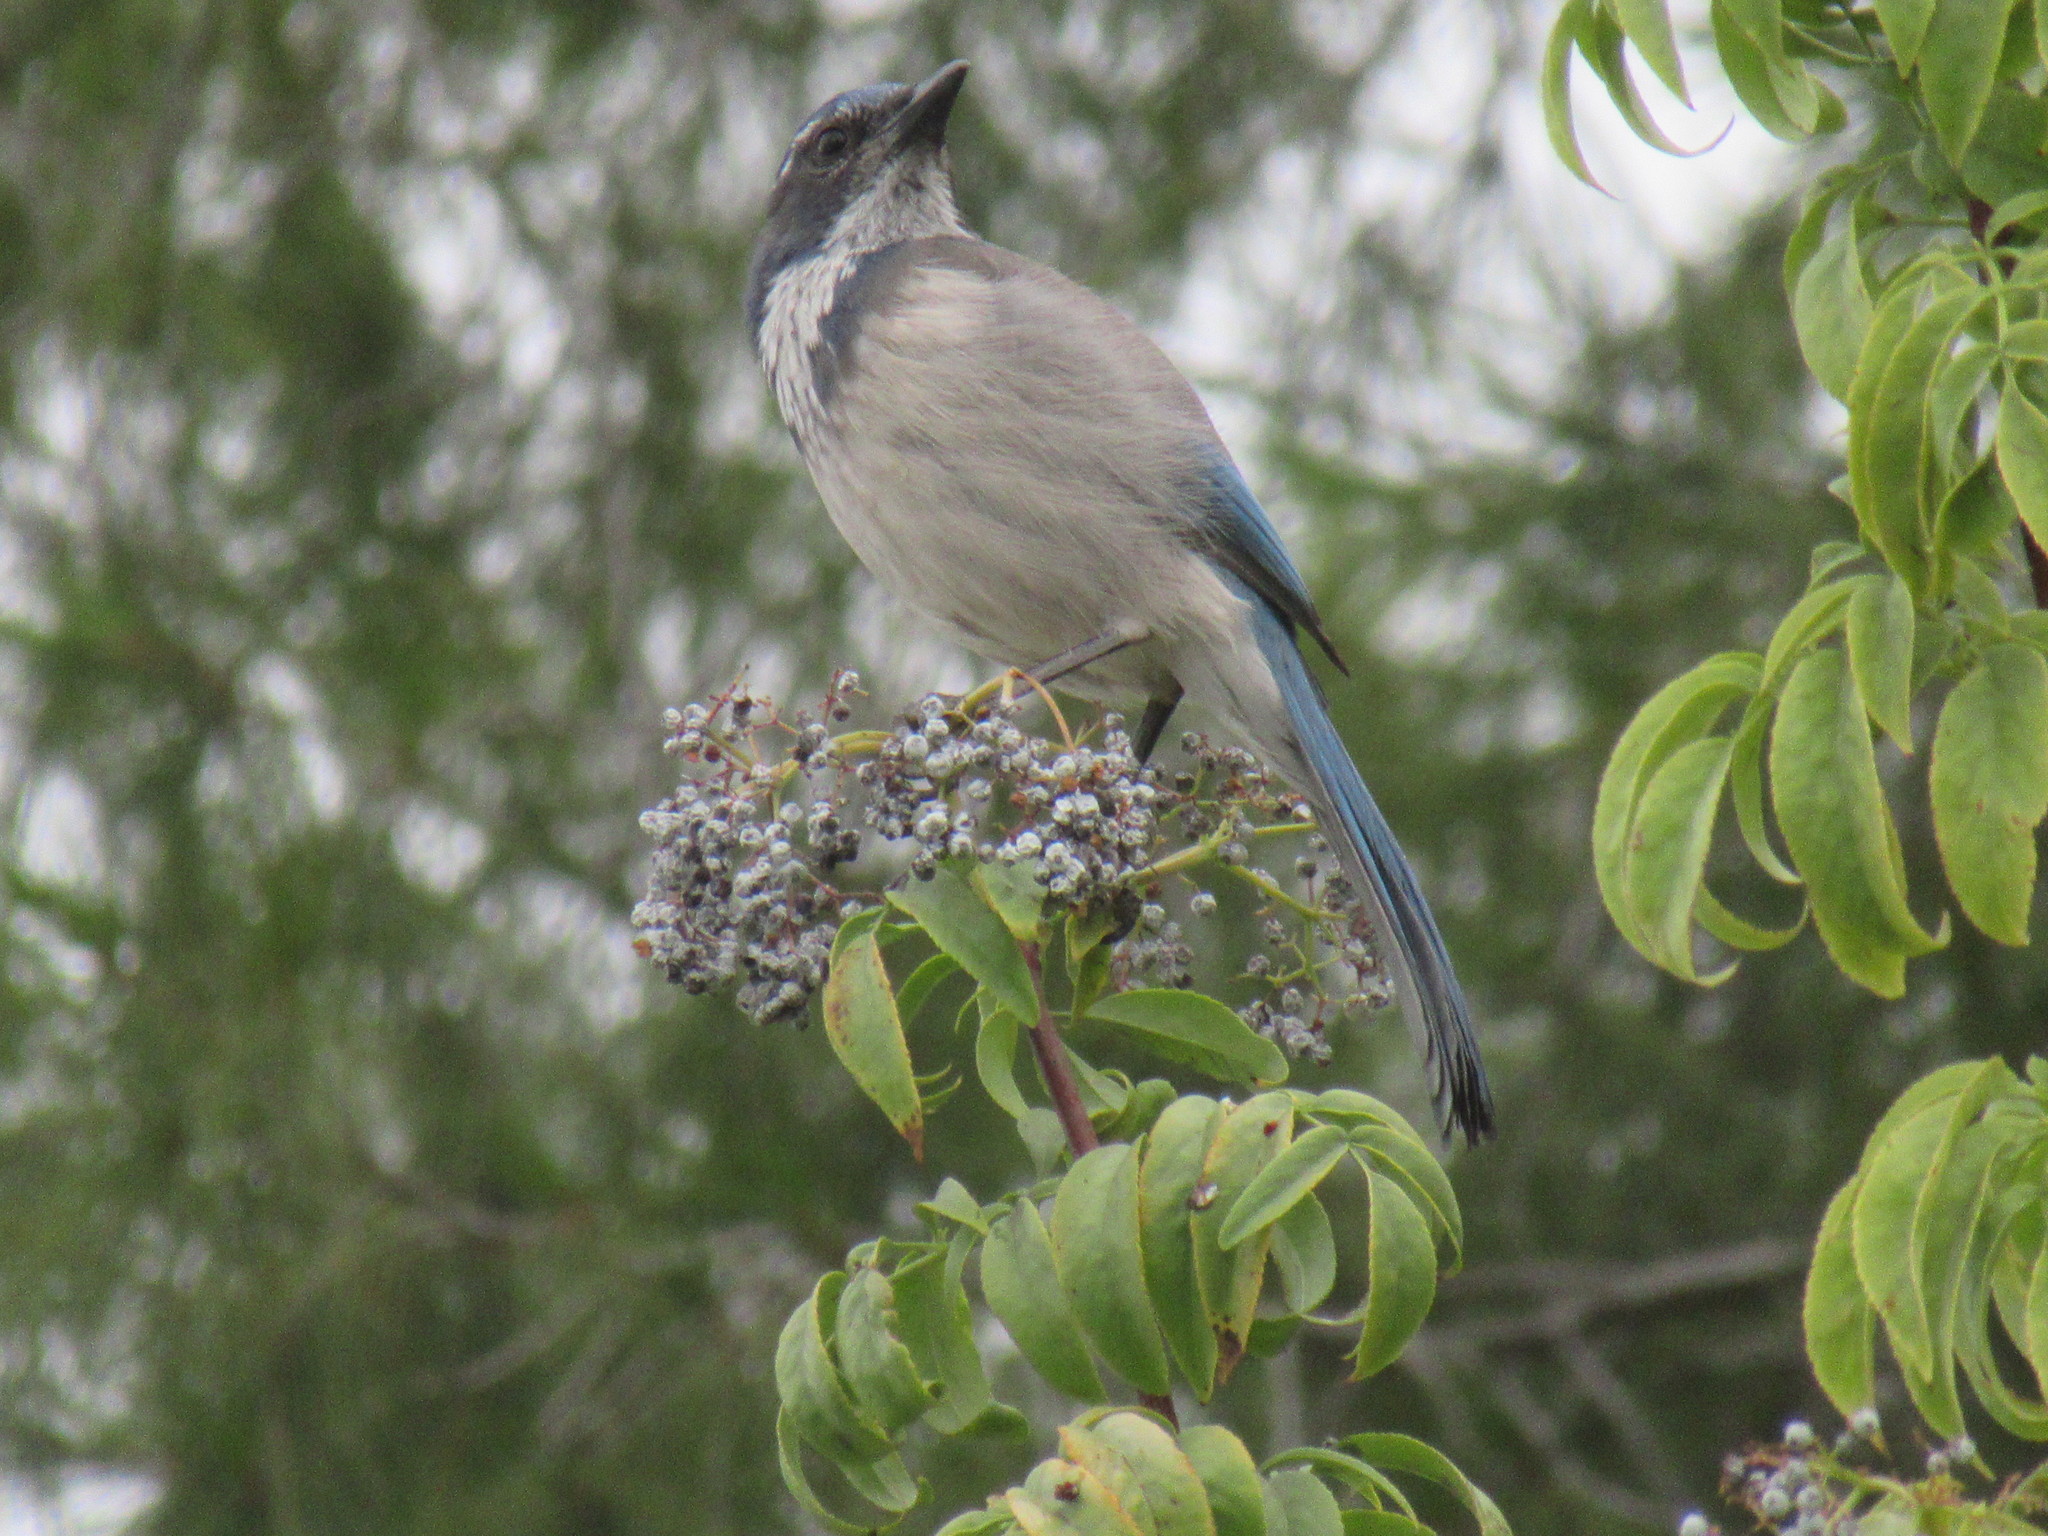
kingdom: Animalia
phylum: Chordata
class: Aves
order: Passeriformes
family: Corvidae
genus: Aphelocoma
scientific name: Aphelocoma californica
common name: California scrub-jay
